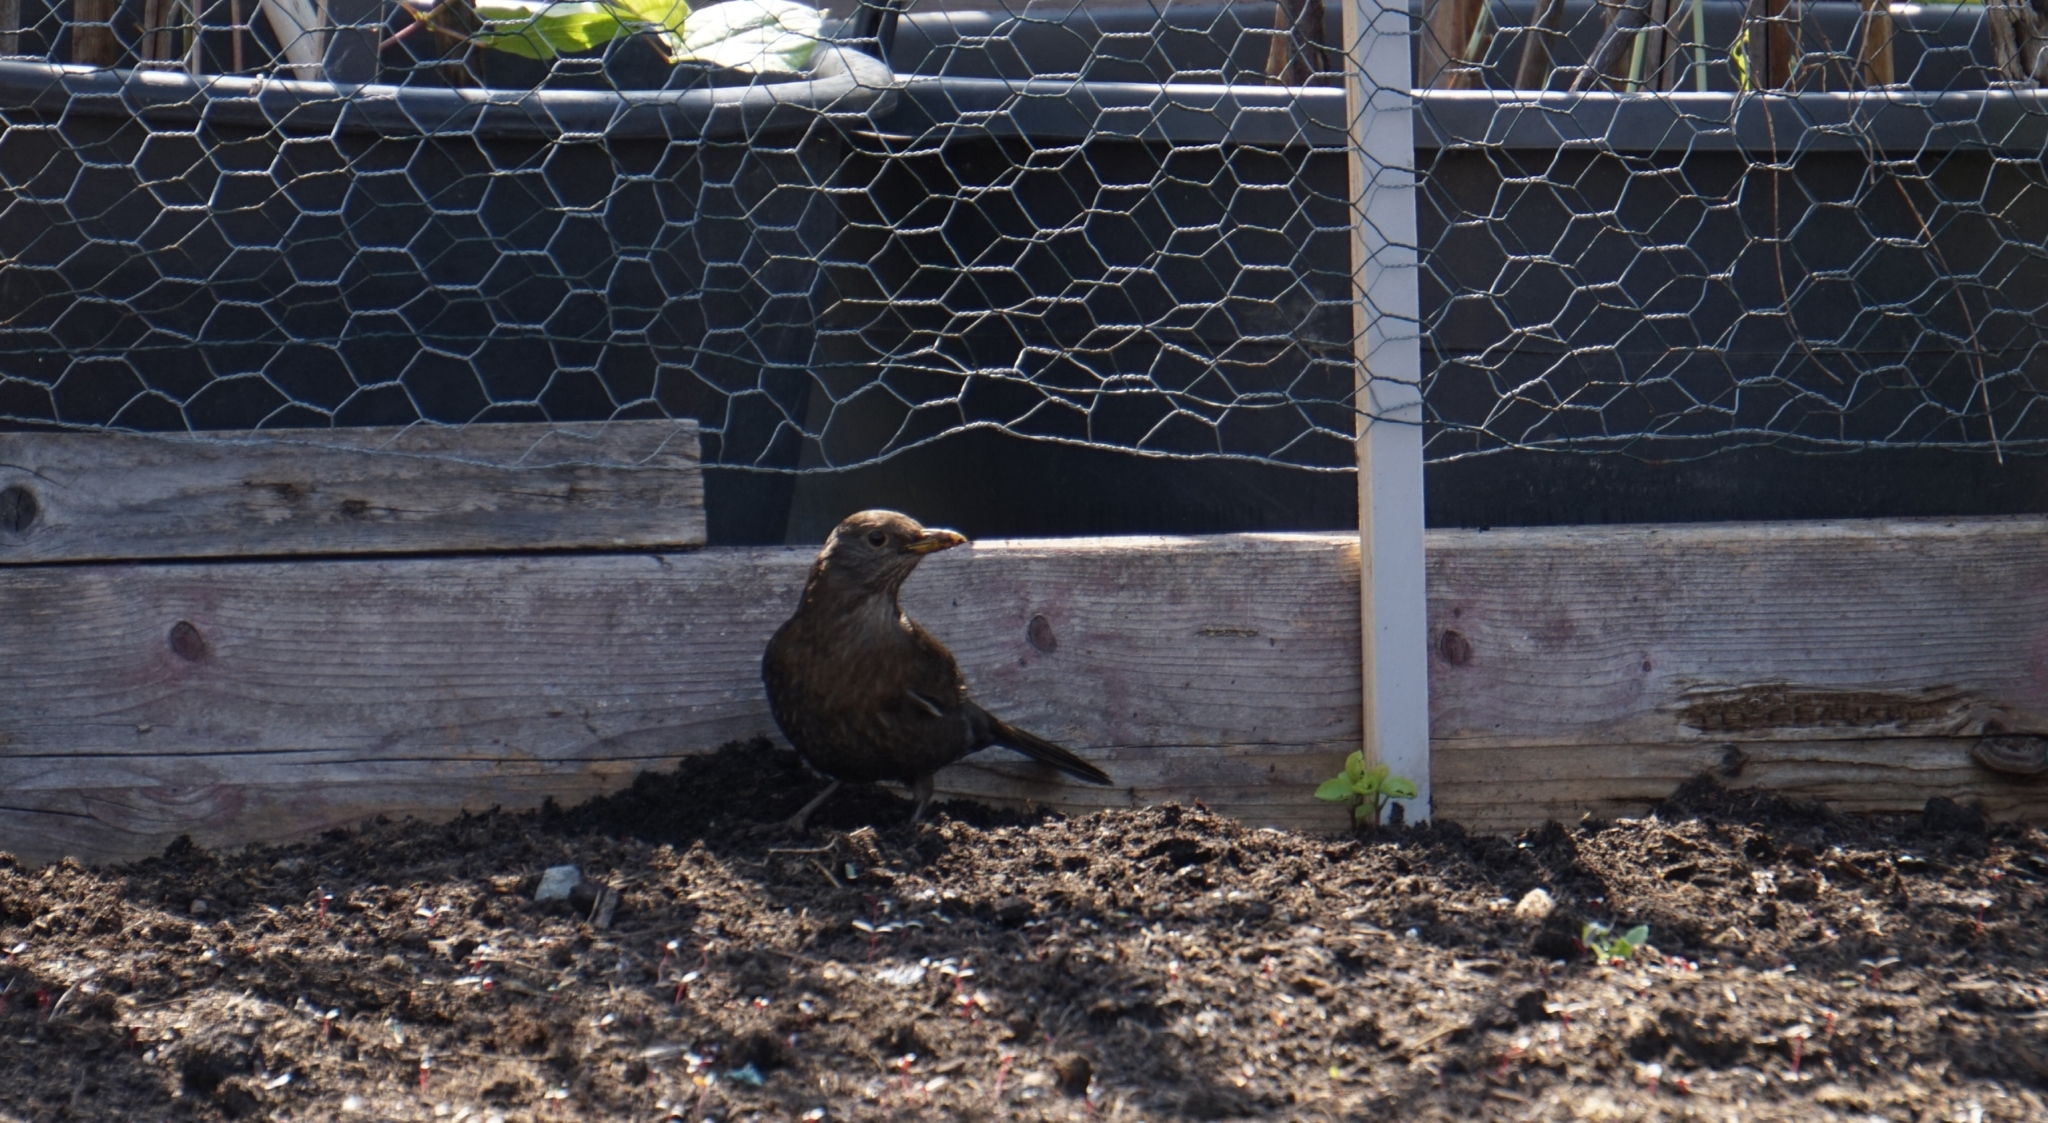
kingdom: Animalia
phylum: Chordata
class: Aves
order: Passeriformes
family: Turdidae
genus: Turdus
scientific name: Turdus merula
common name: Common blackbird
